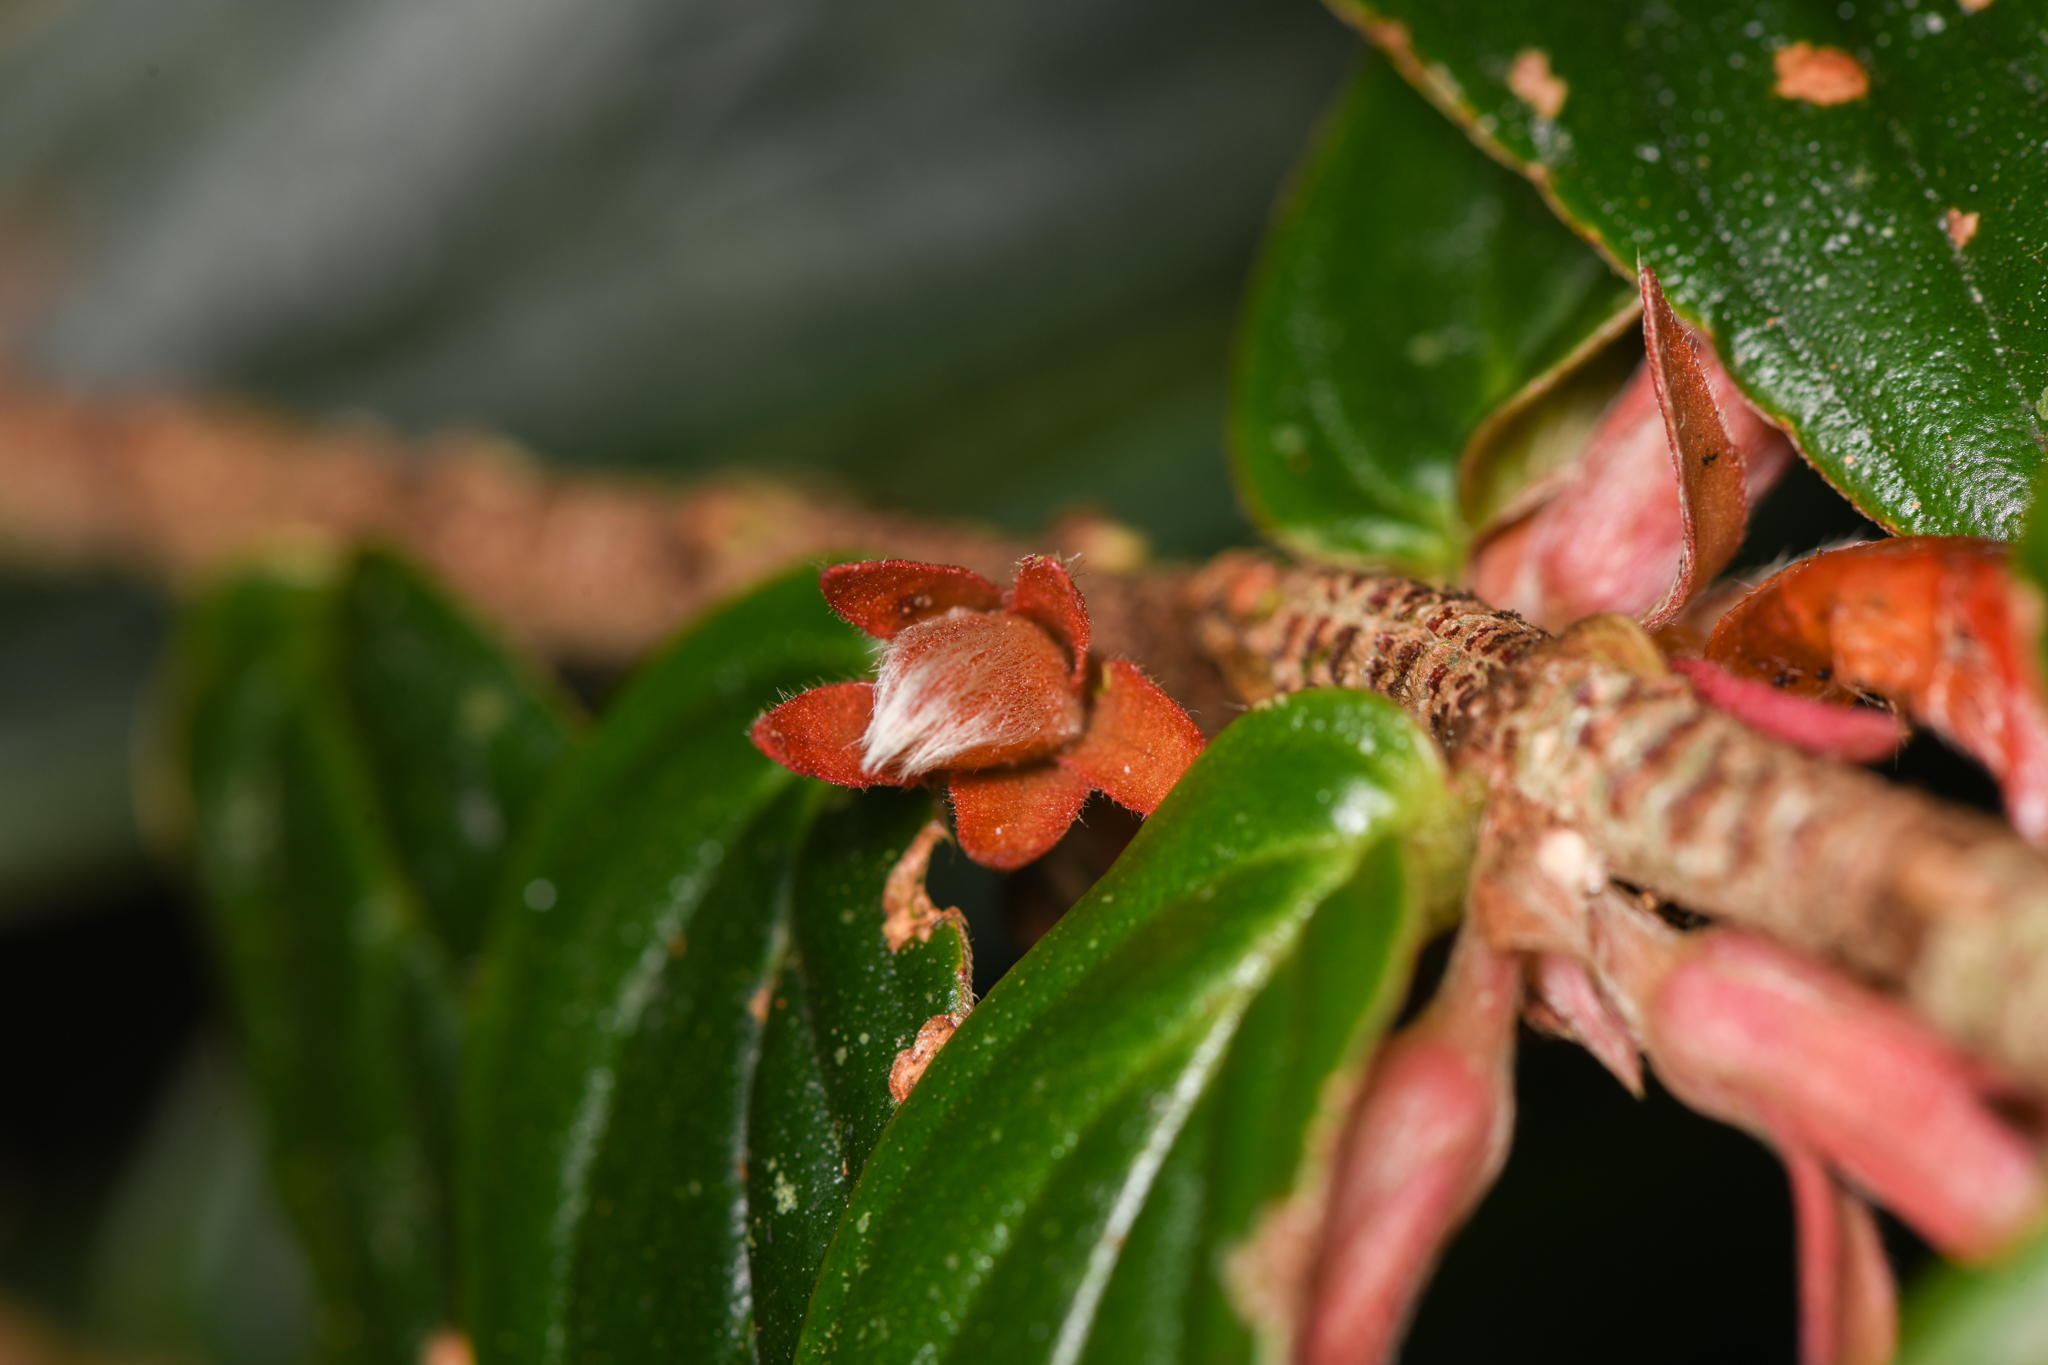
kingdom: Plantae
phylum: Tracheophyta
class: Magnoliopsida
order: Lamiales
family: Gesneriaceae
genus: Columnea
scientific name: Columnea querceti
